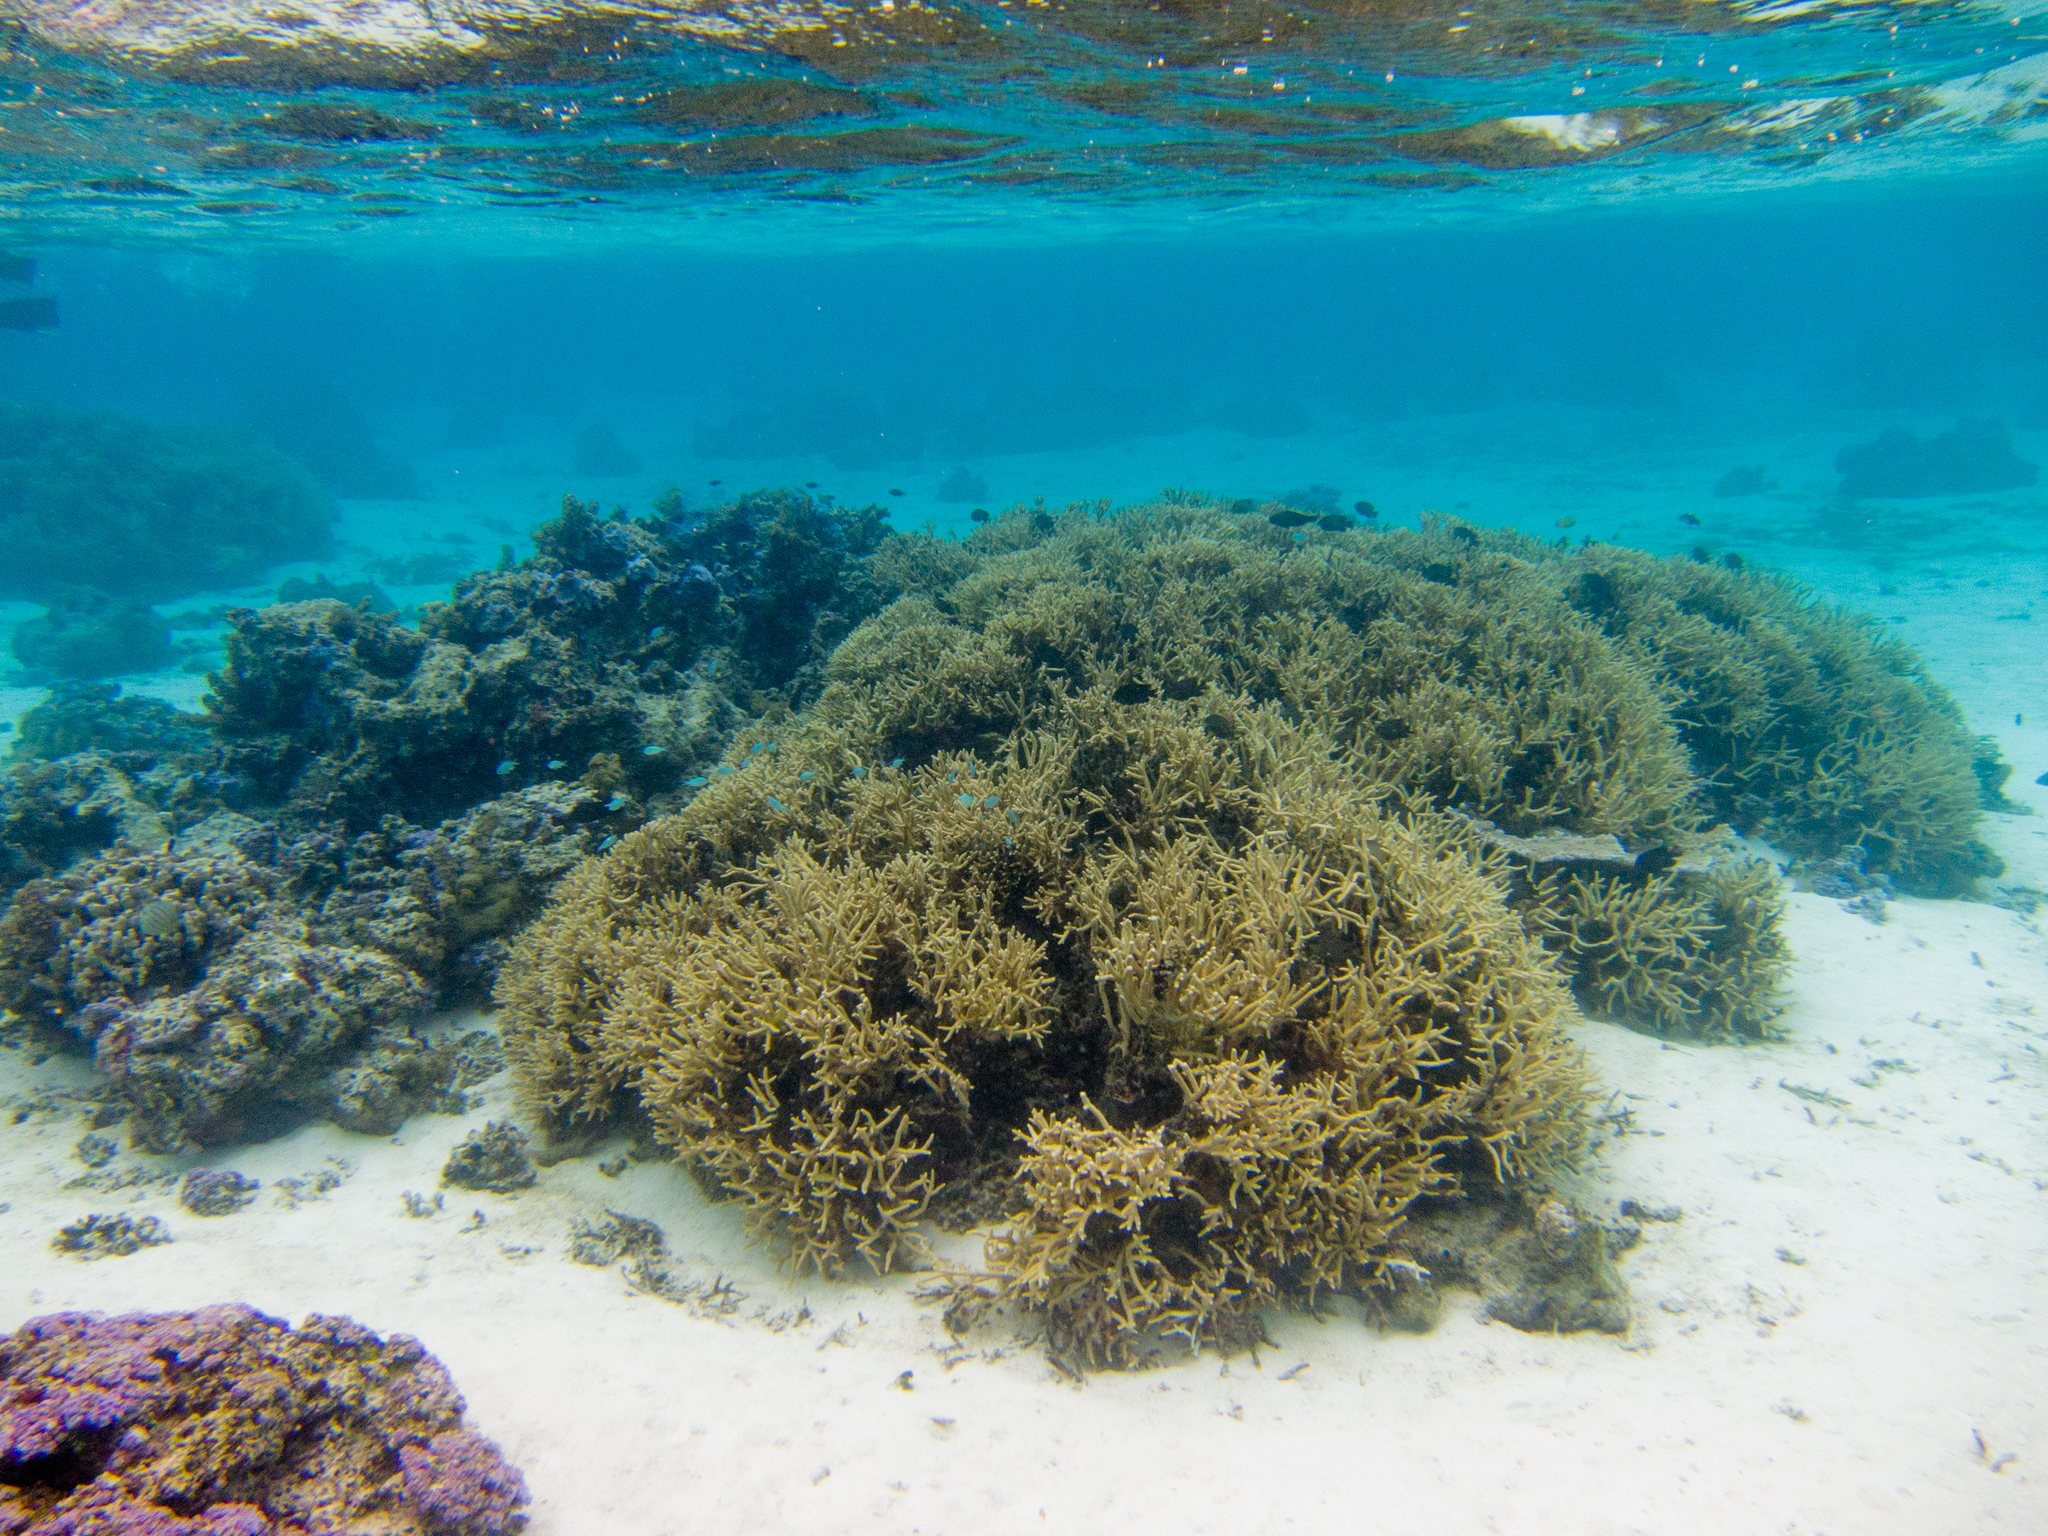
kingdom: Animalia
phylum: Chordata
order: Perciformes
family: Pomacentridae
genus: Stegastes
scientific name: Stegastes nigricans
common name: Dusky gregory
